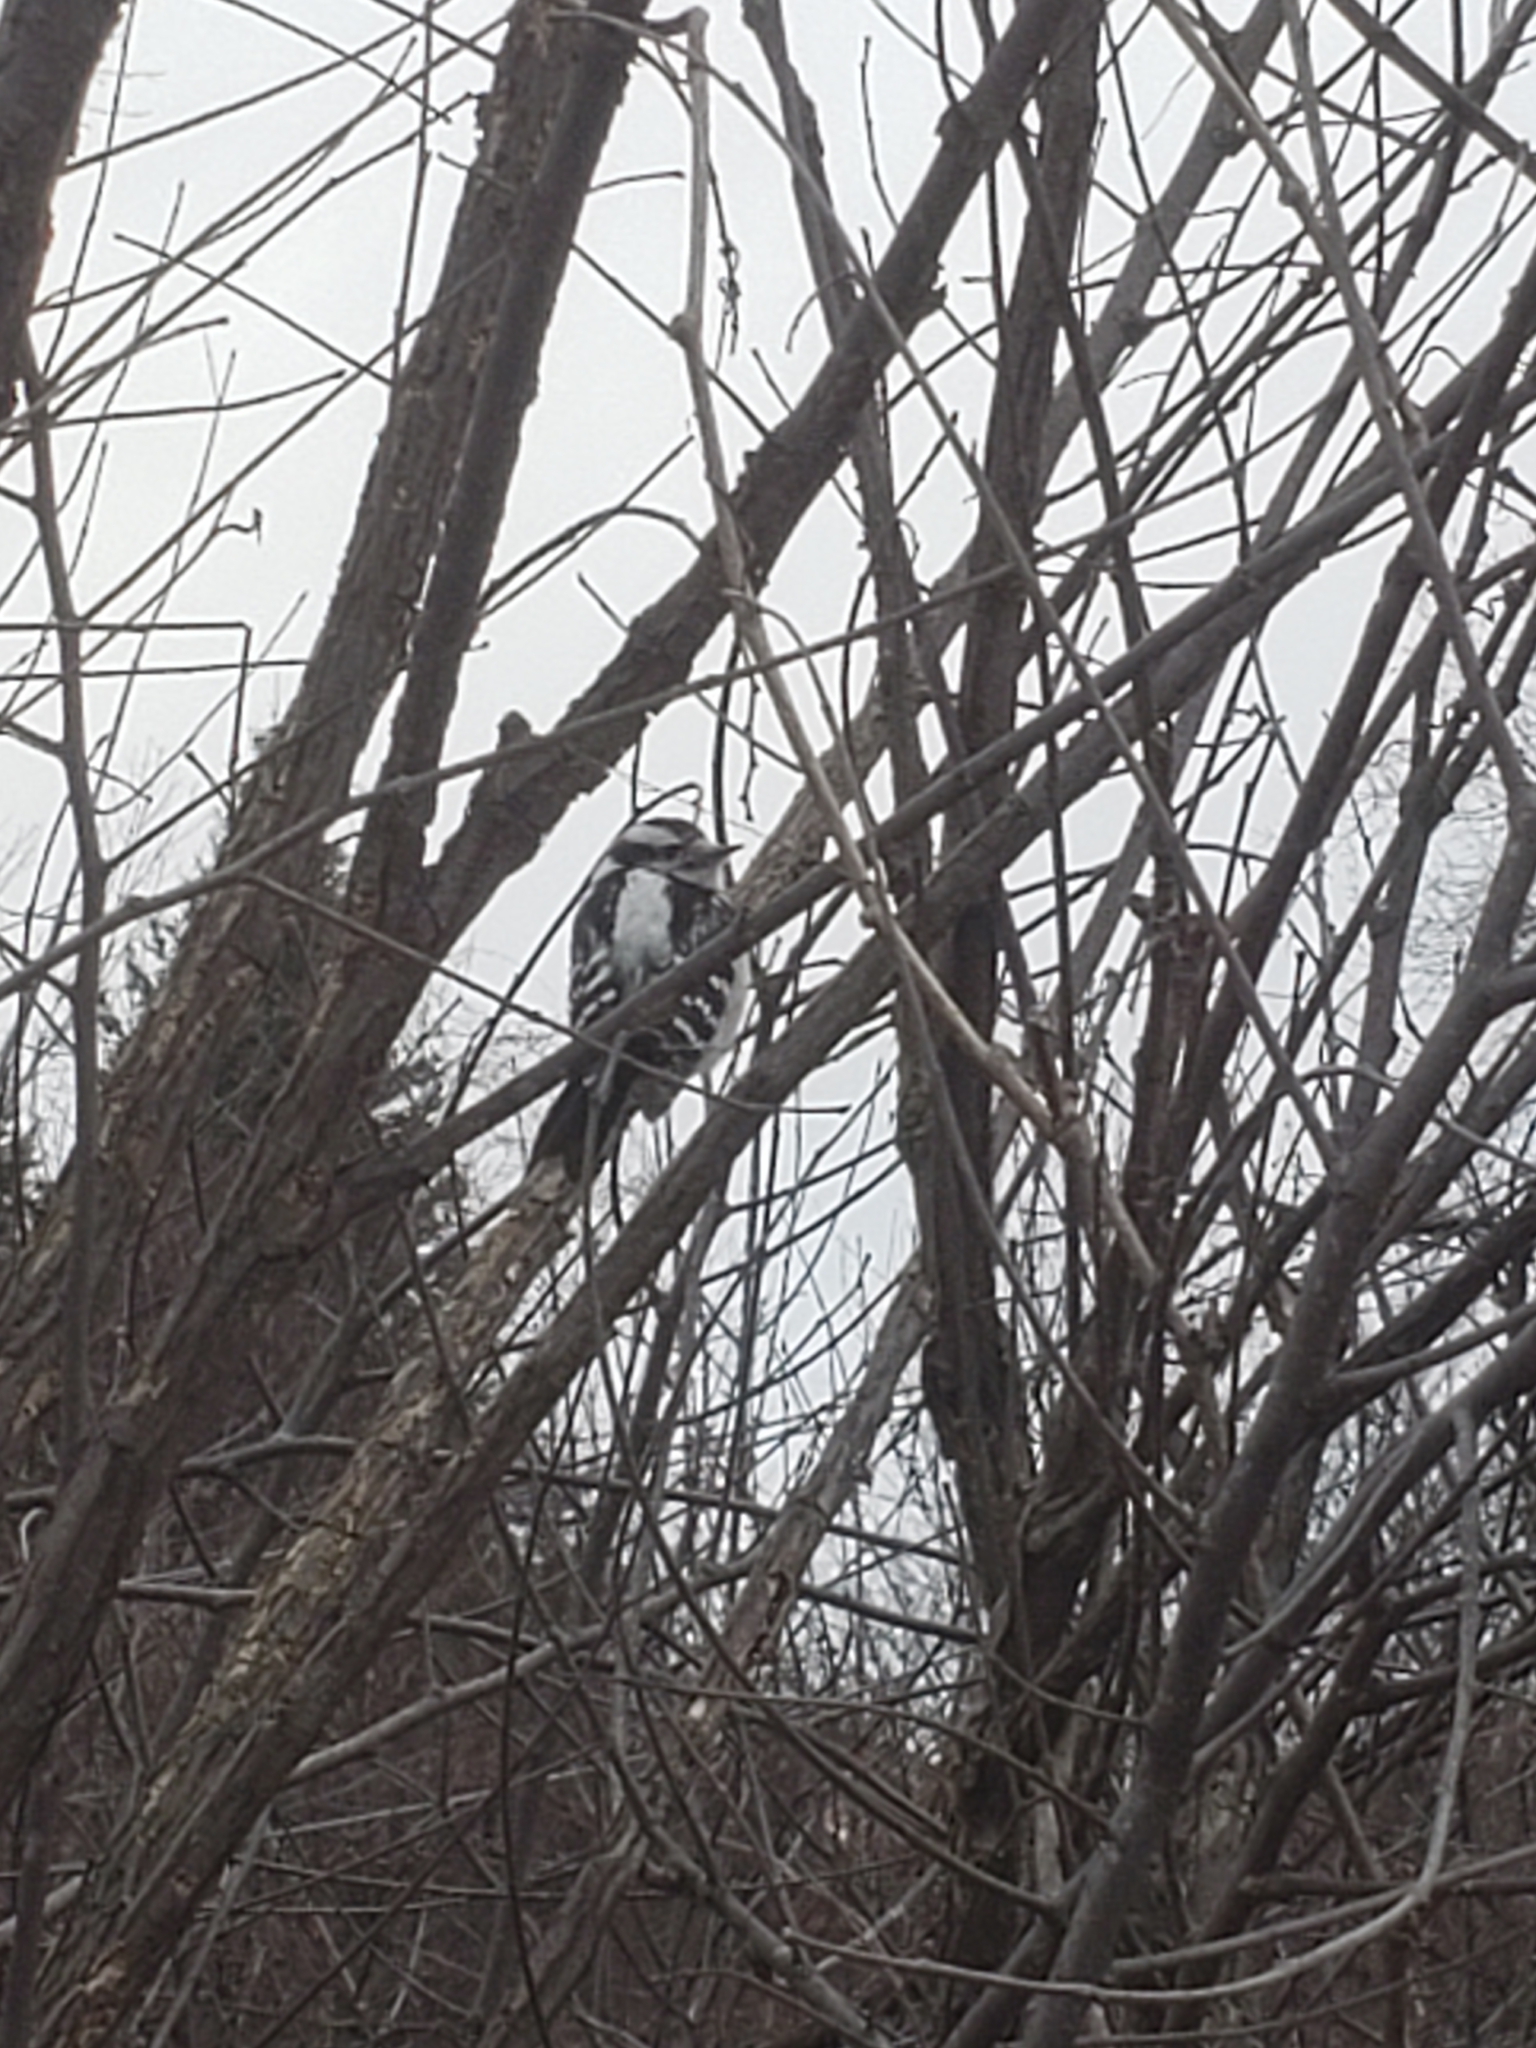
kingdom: Animalia
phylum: Chordata
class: Aves
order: Piciformes
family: Picidae
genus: Dryobates
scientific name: Dryobates pubescens
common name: Downy woodpecker
